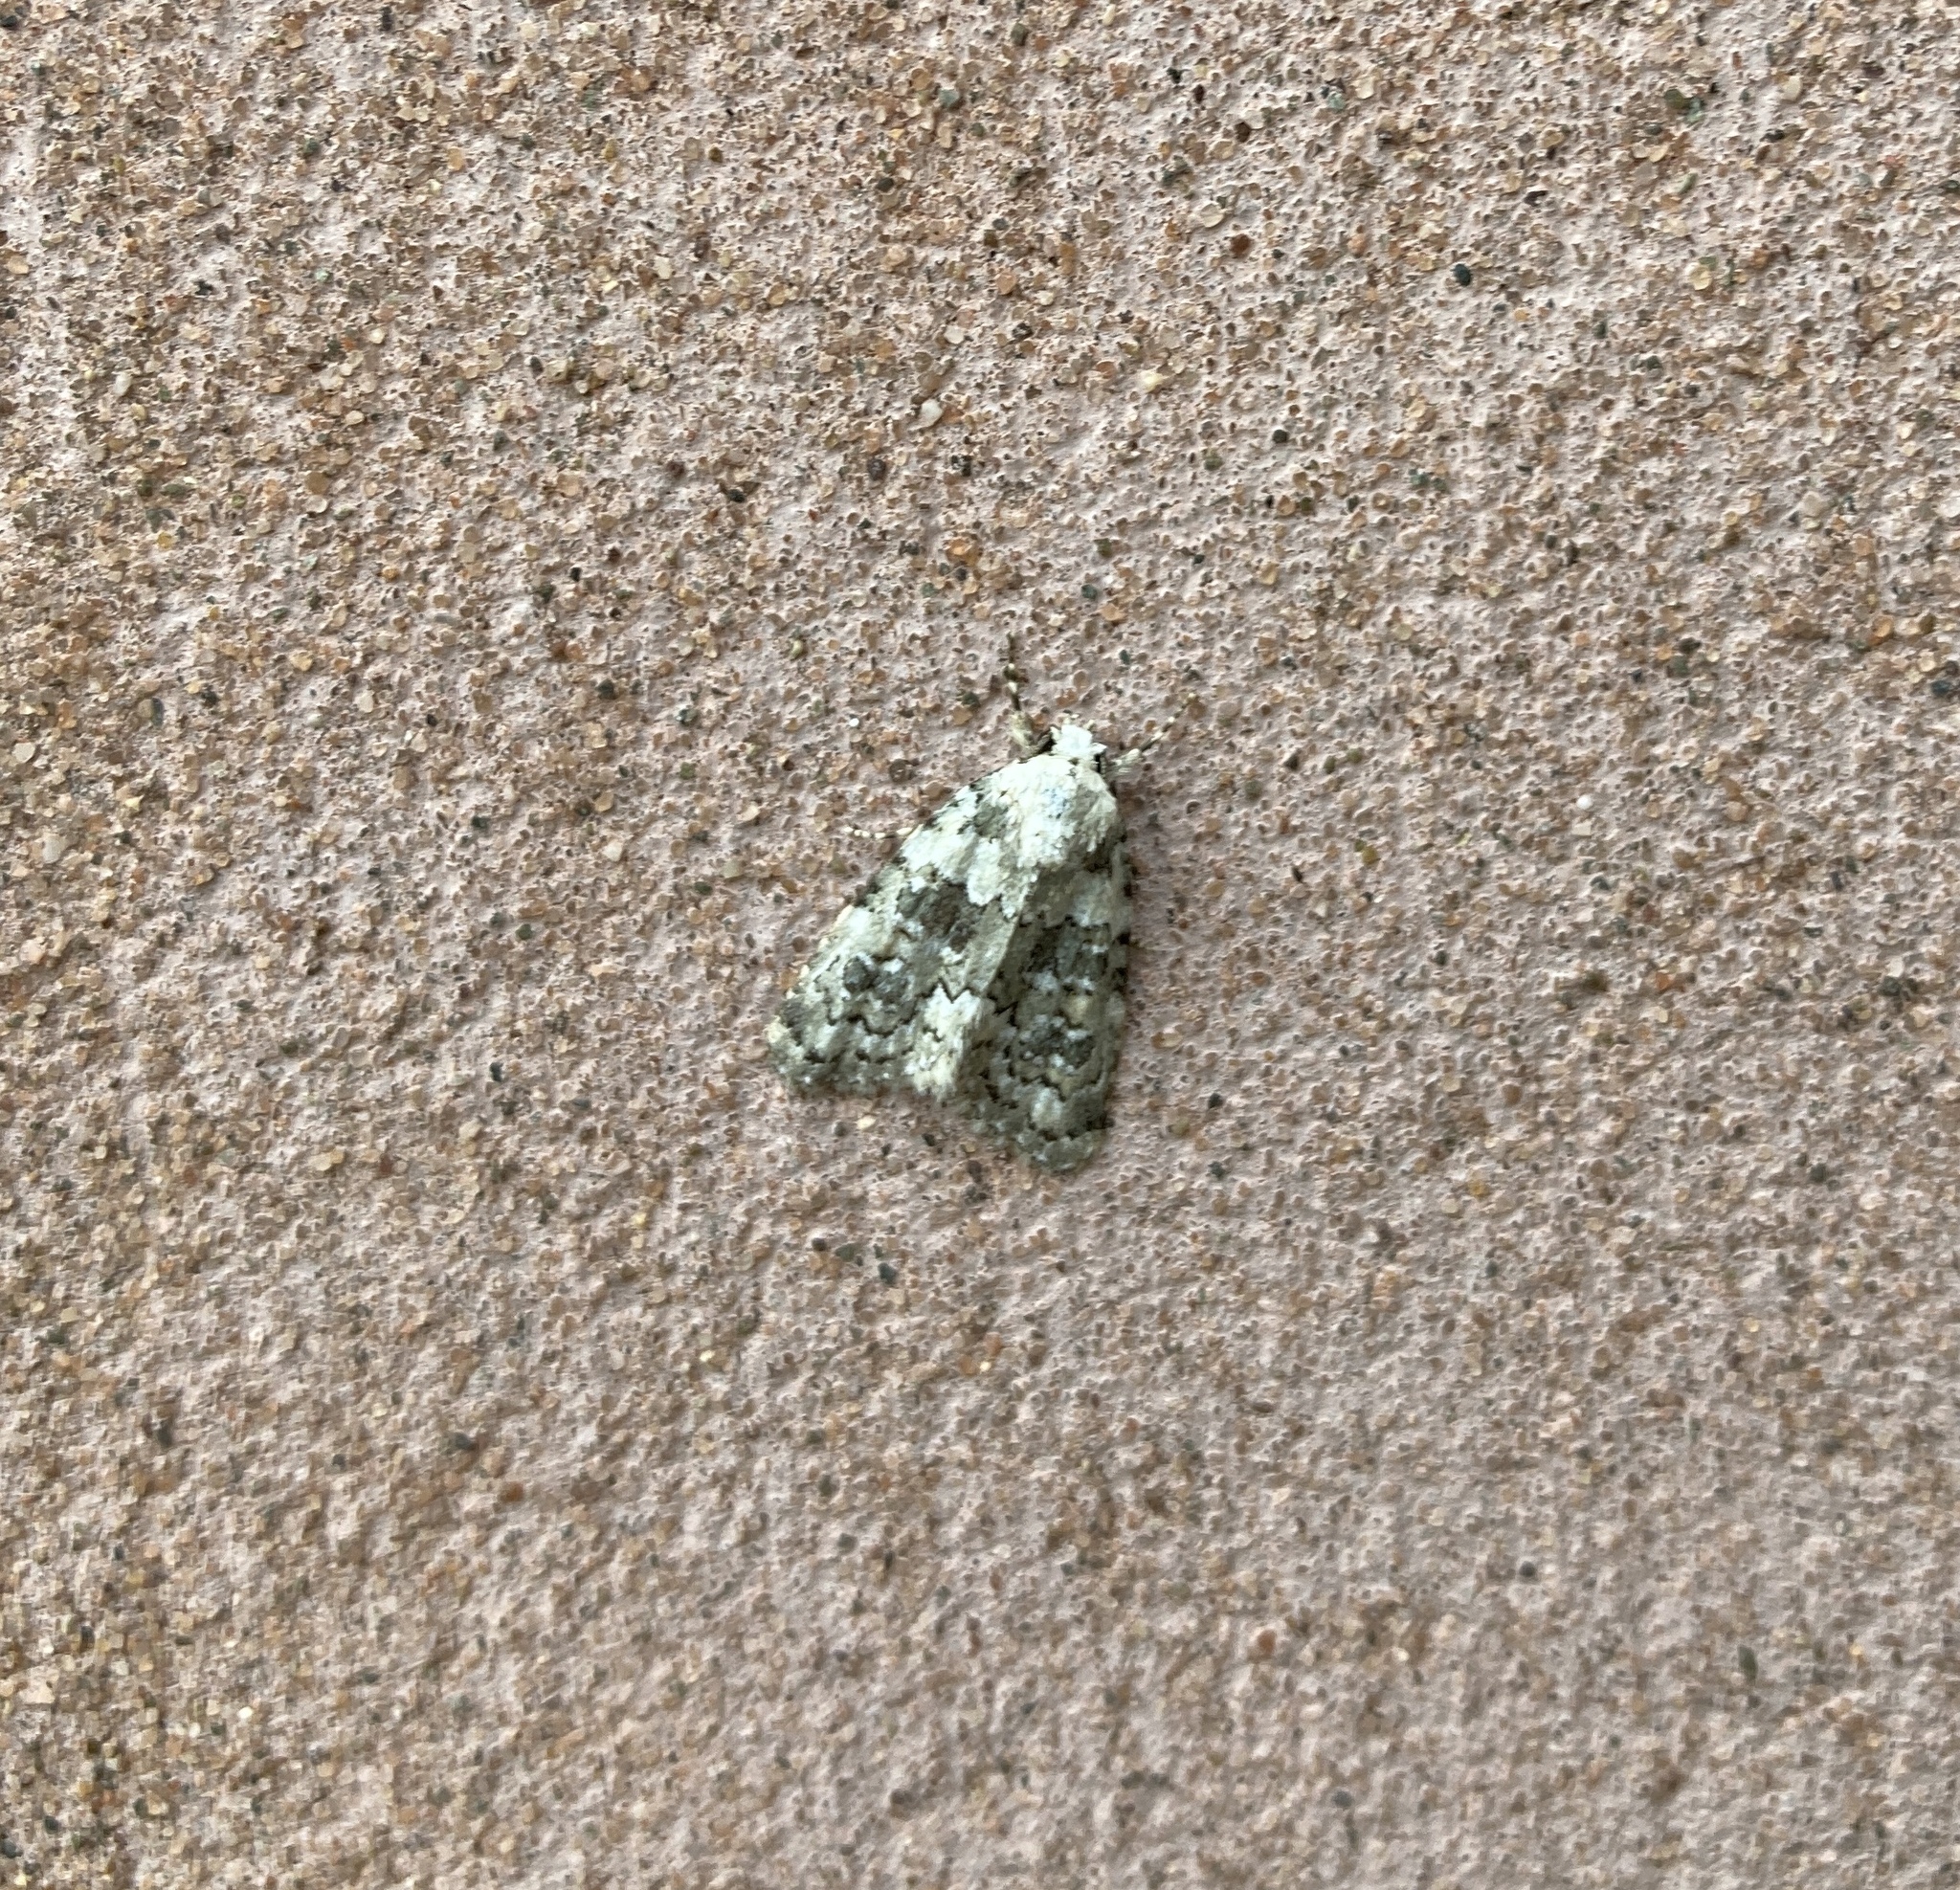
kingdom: Animalia
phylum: Arthropoda
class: Insecta
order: Lepidoptera
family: Noctuidae
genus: Bryophila
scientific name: Bryophila domestica
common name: Marbled beauty
